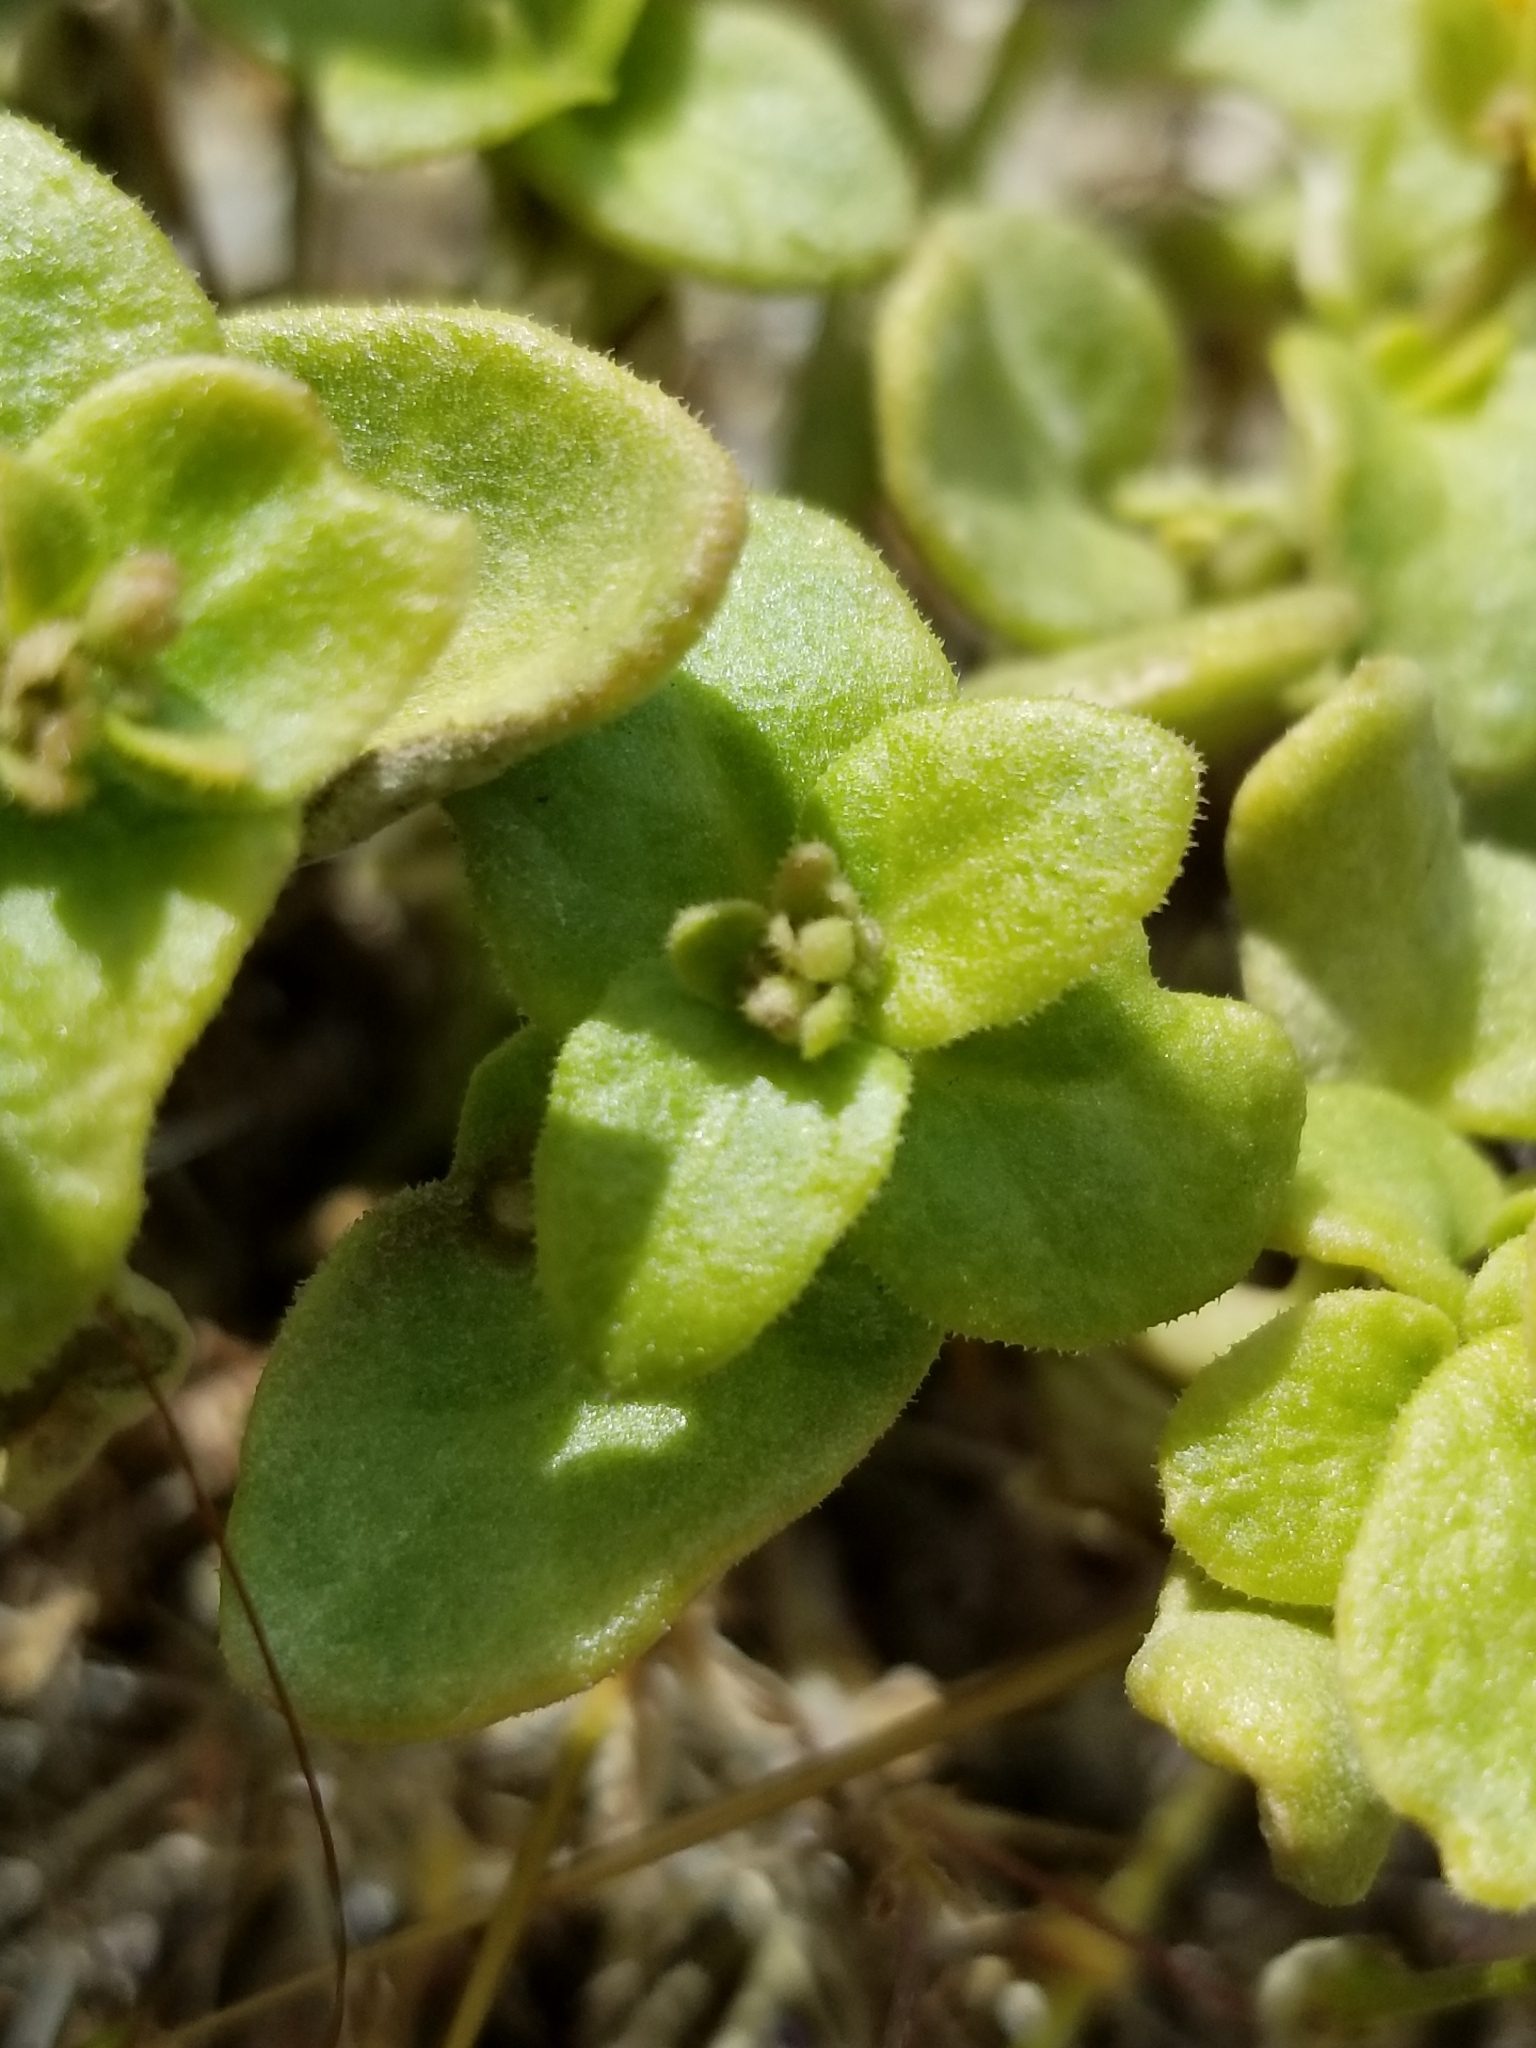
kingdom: Plantae
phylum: Tracheophyta
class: Magnoliopsida
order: Asterales
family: Asteraceae
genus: Lasthenia
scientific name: Lasthenia gracilis
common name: Common goldfields
